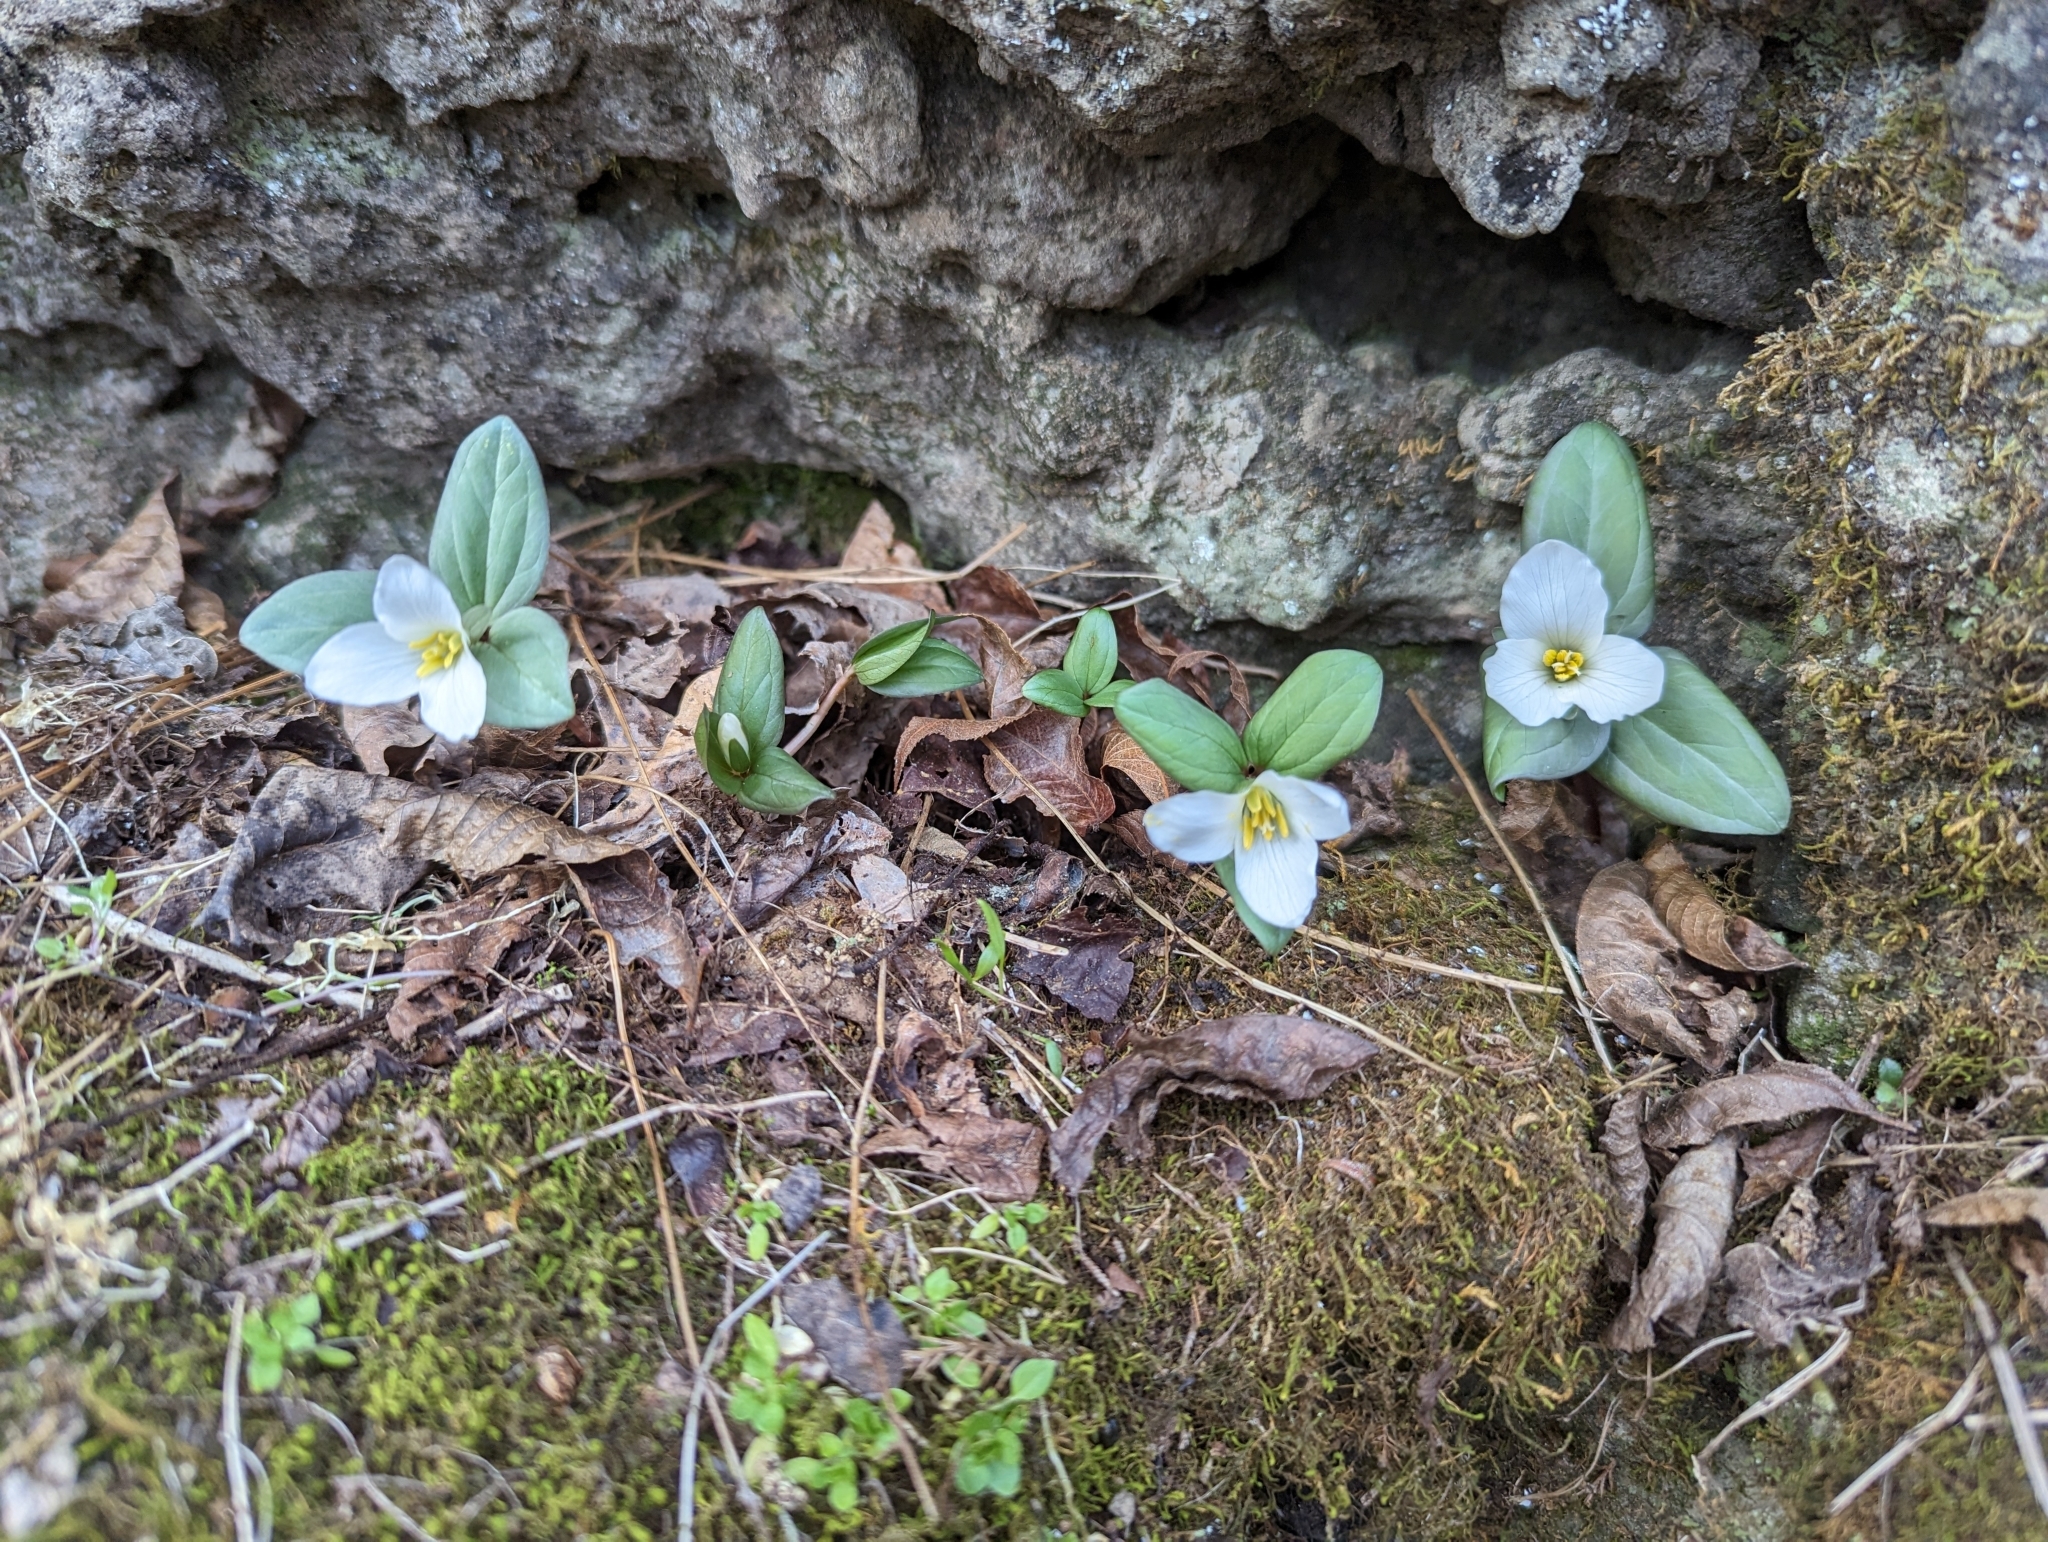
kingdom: Plantae
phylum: Tracheophyta
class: Liliopsida
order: Liliales
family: Melanthiaceae
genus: Trillium
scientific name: Trillium nivale
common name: Dwarf white trillium
